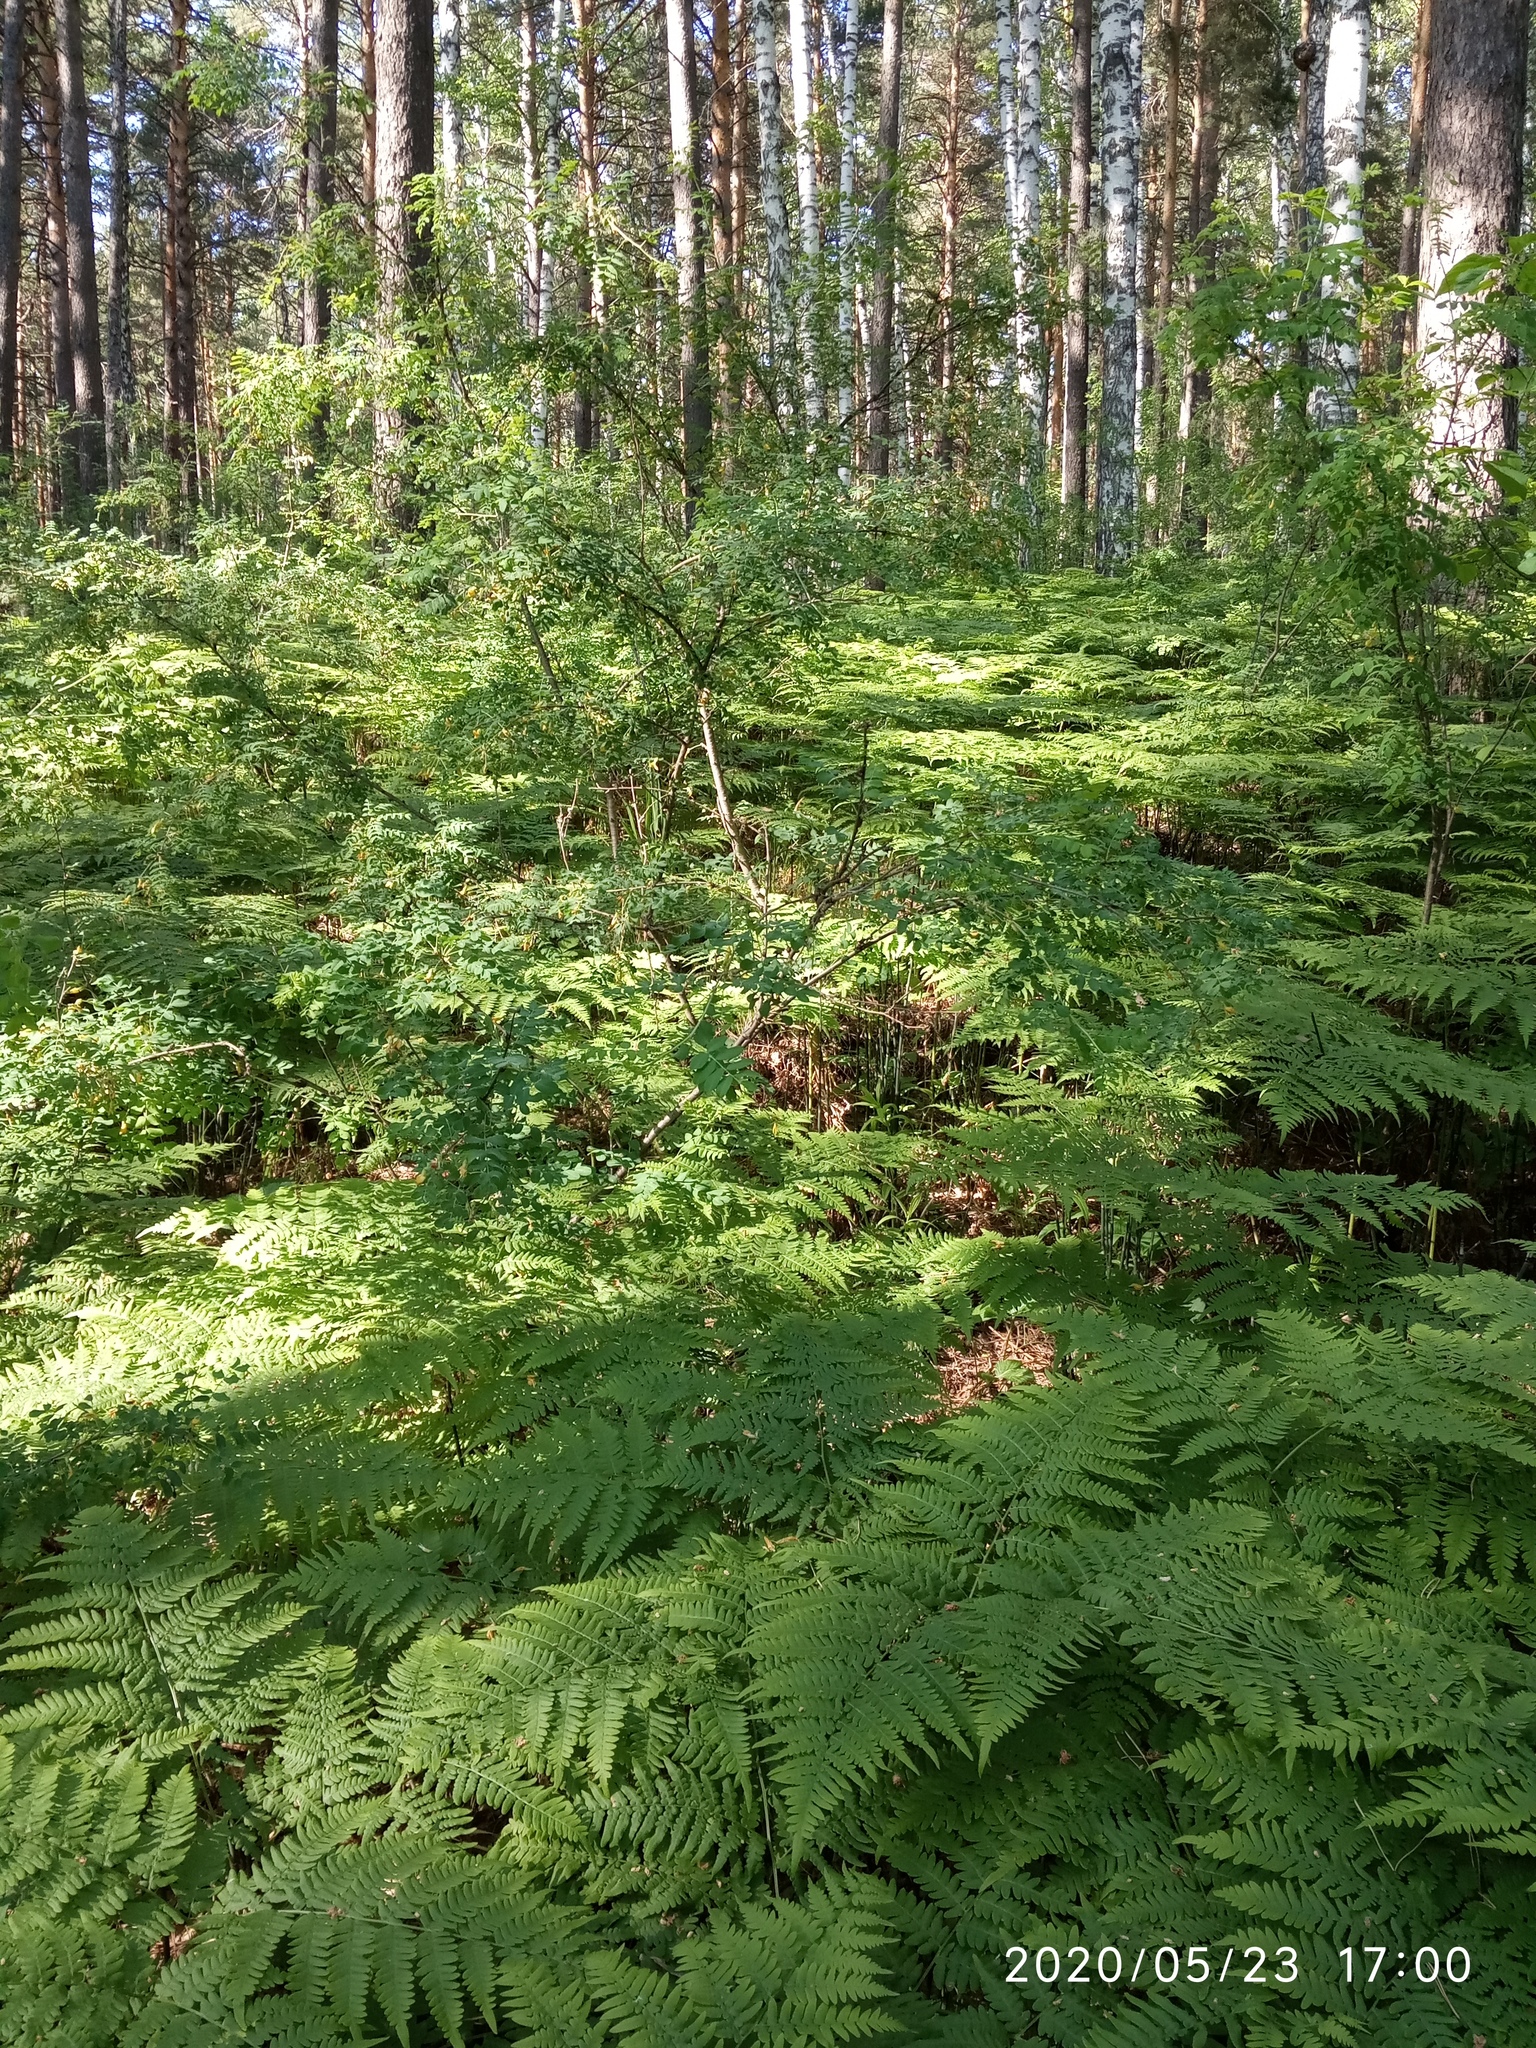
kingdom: Plantae
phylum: Tracheophyta
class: Polypodiopsida
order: Polypodiales
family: Dennstaedtiaceae
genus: Pteridium
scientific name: Pteridium aquilinum
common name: Bracken
